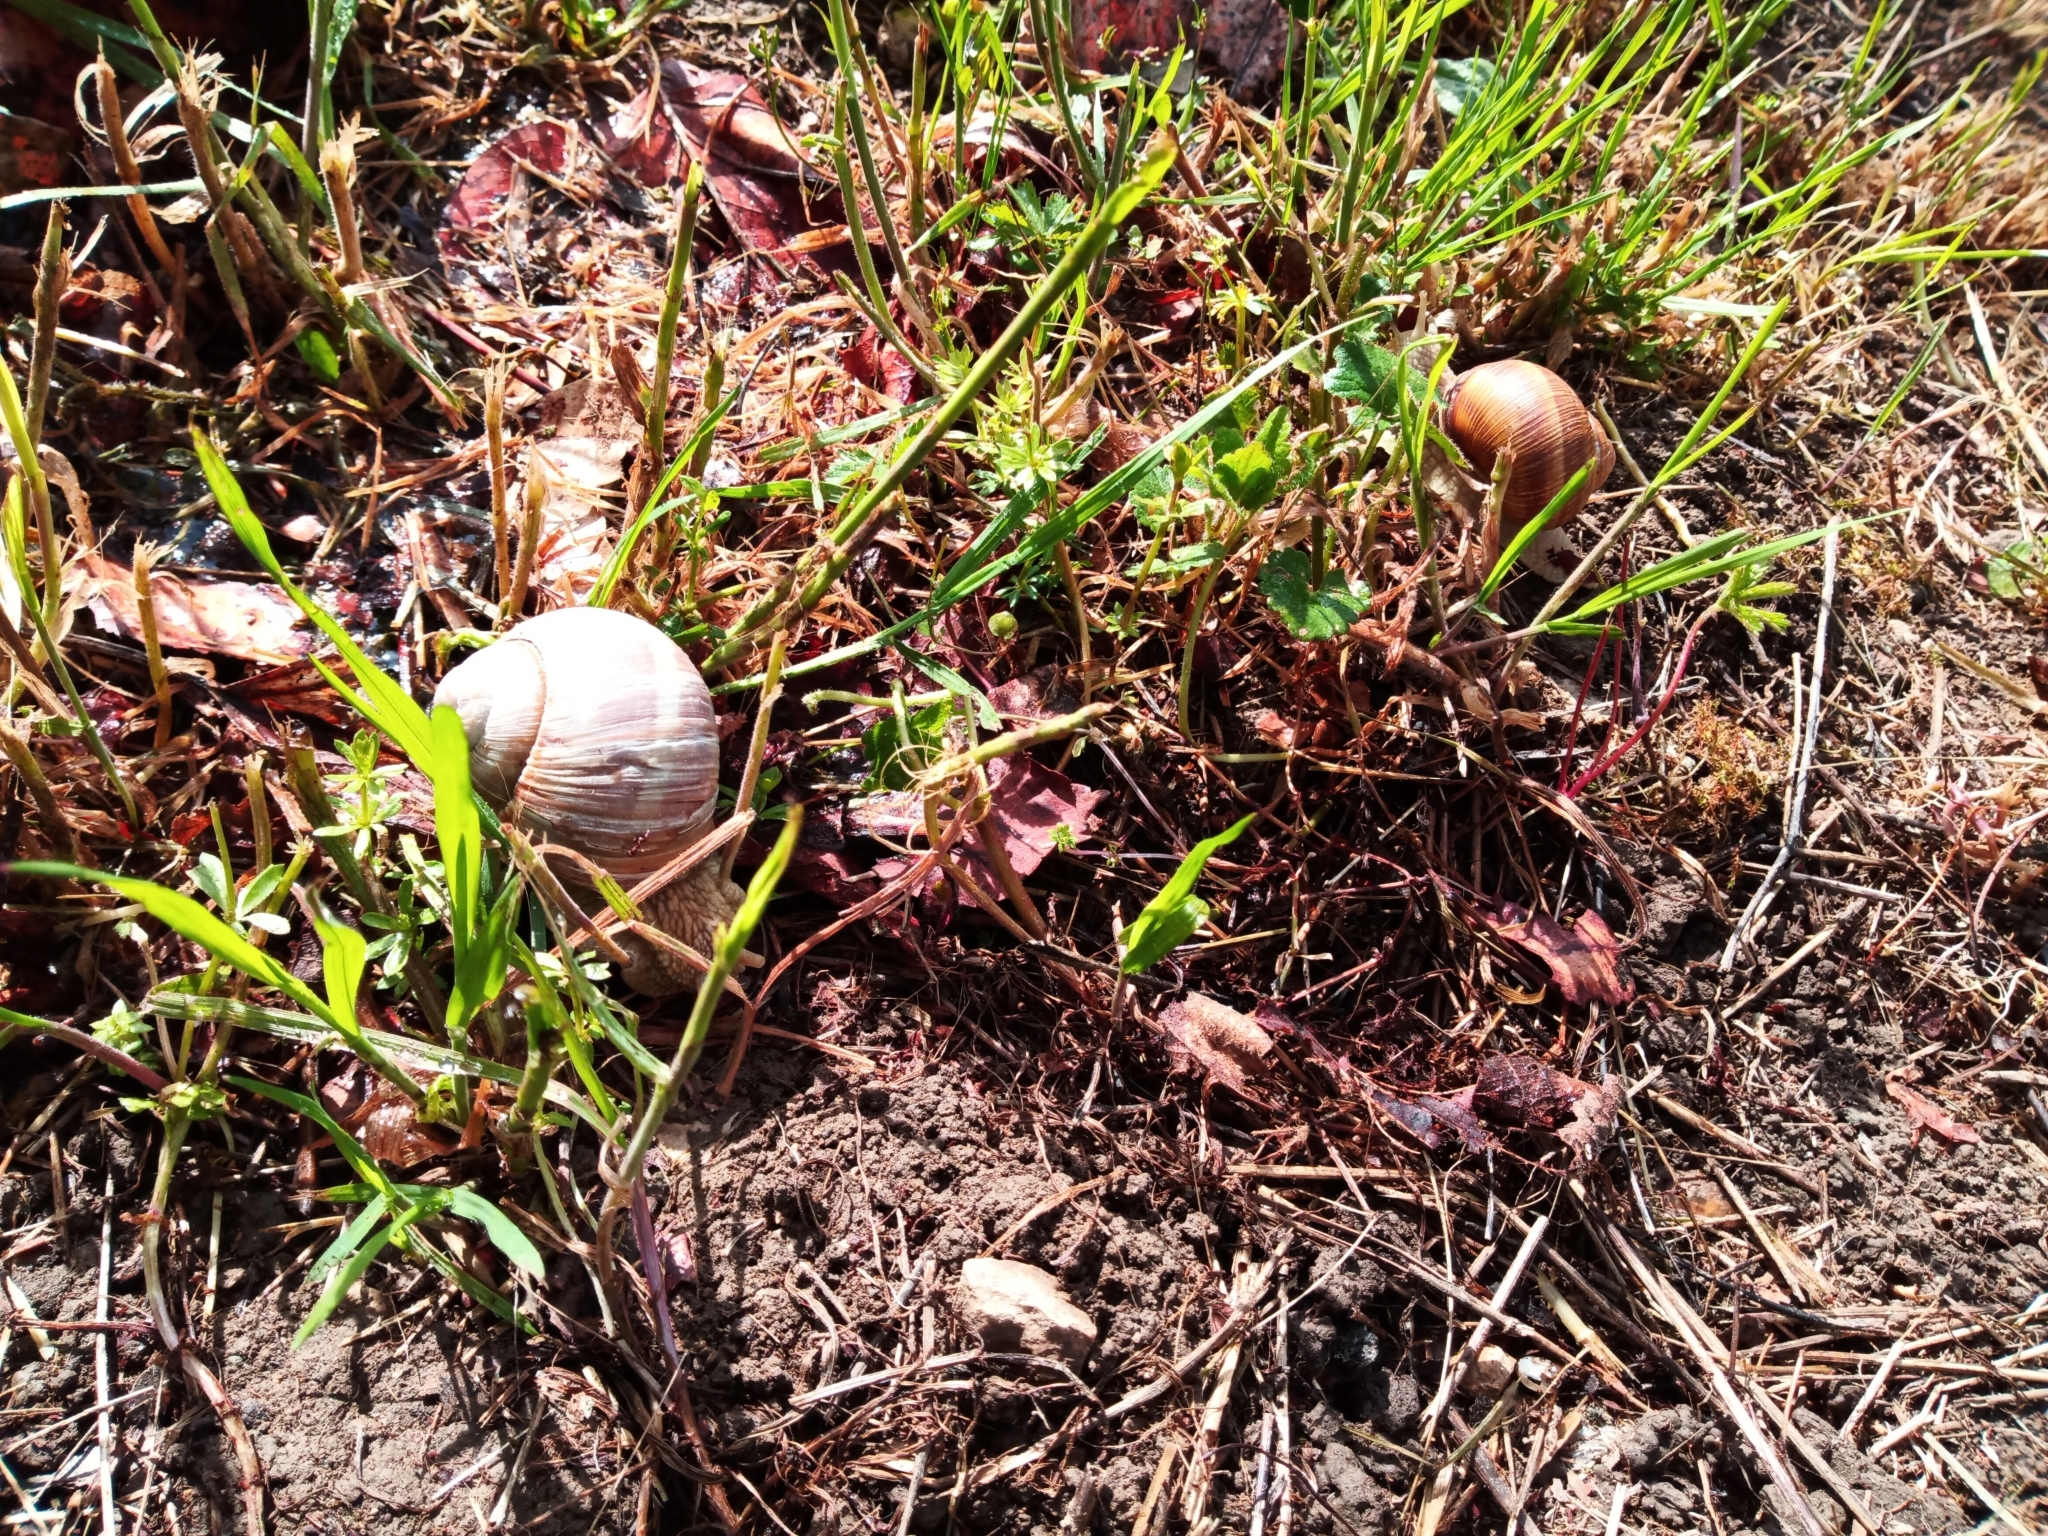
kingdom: Animalia
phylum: Mollusca
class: Gastropoda
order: Stylommatophora
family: Helicidae
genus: Helix
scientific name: Helix pomatia
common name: Roman snail
